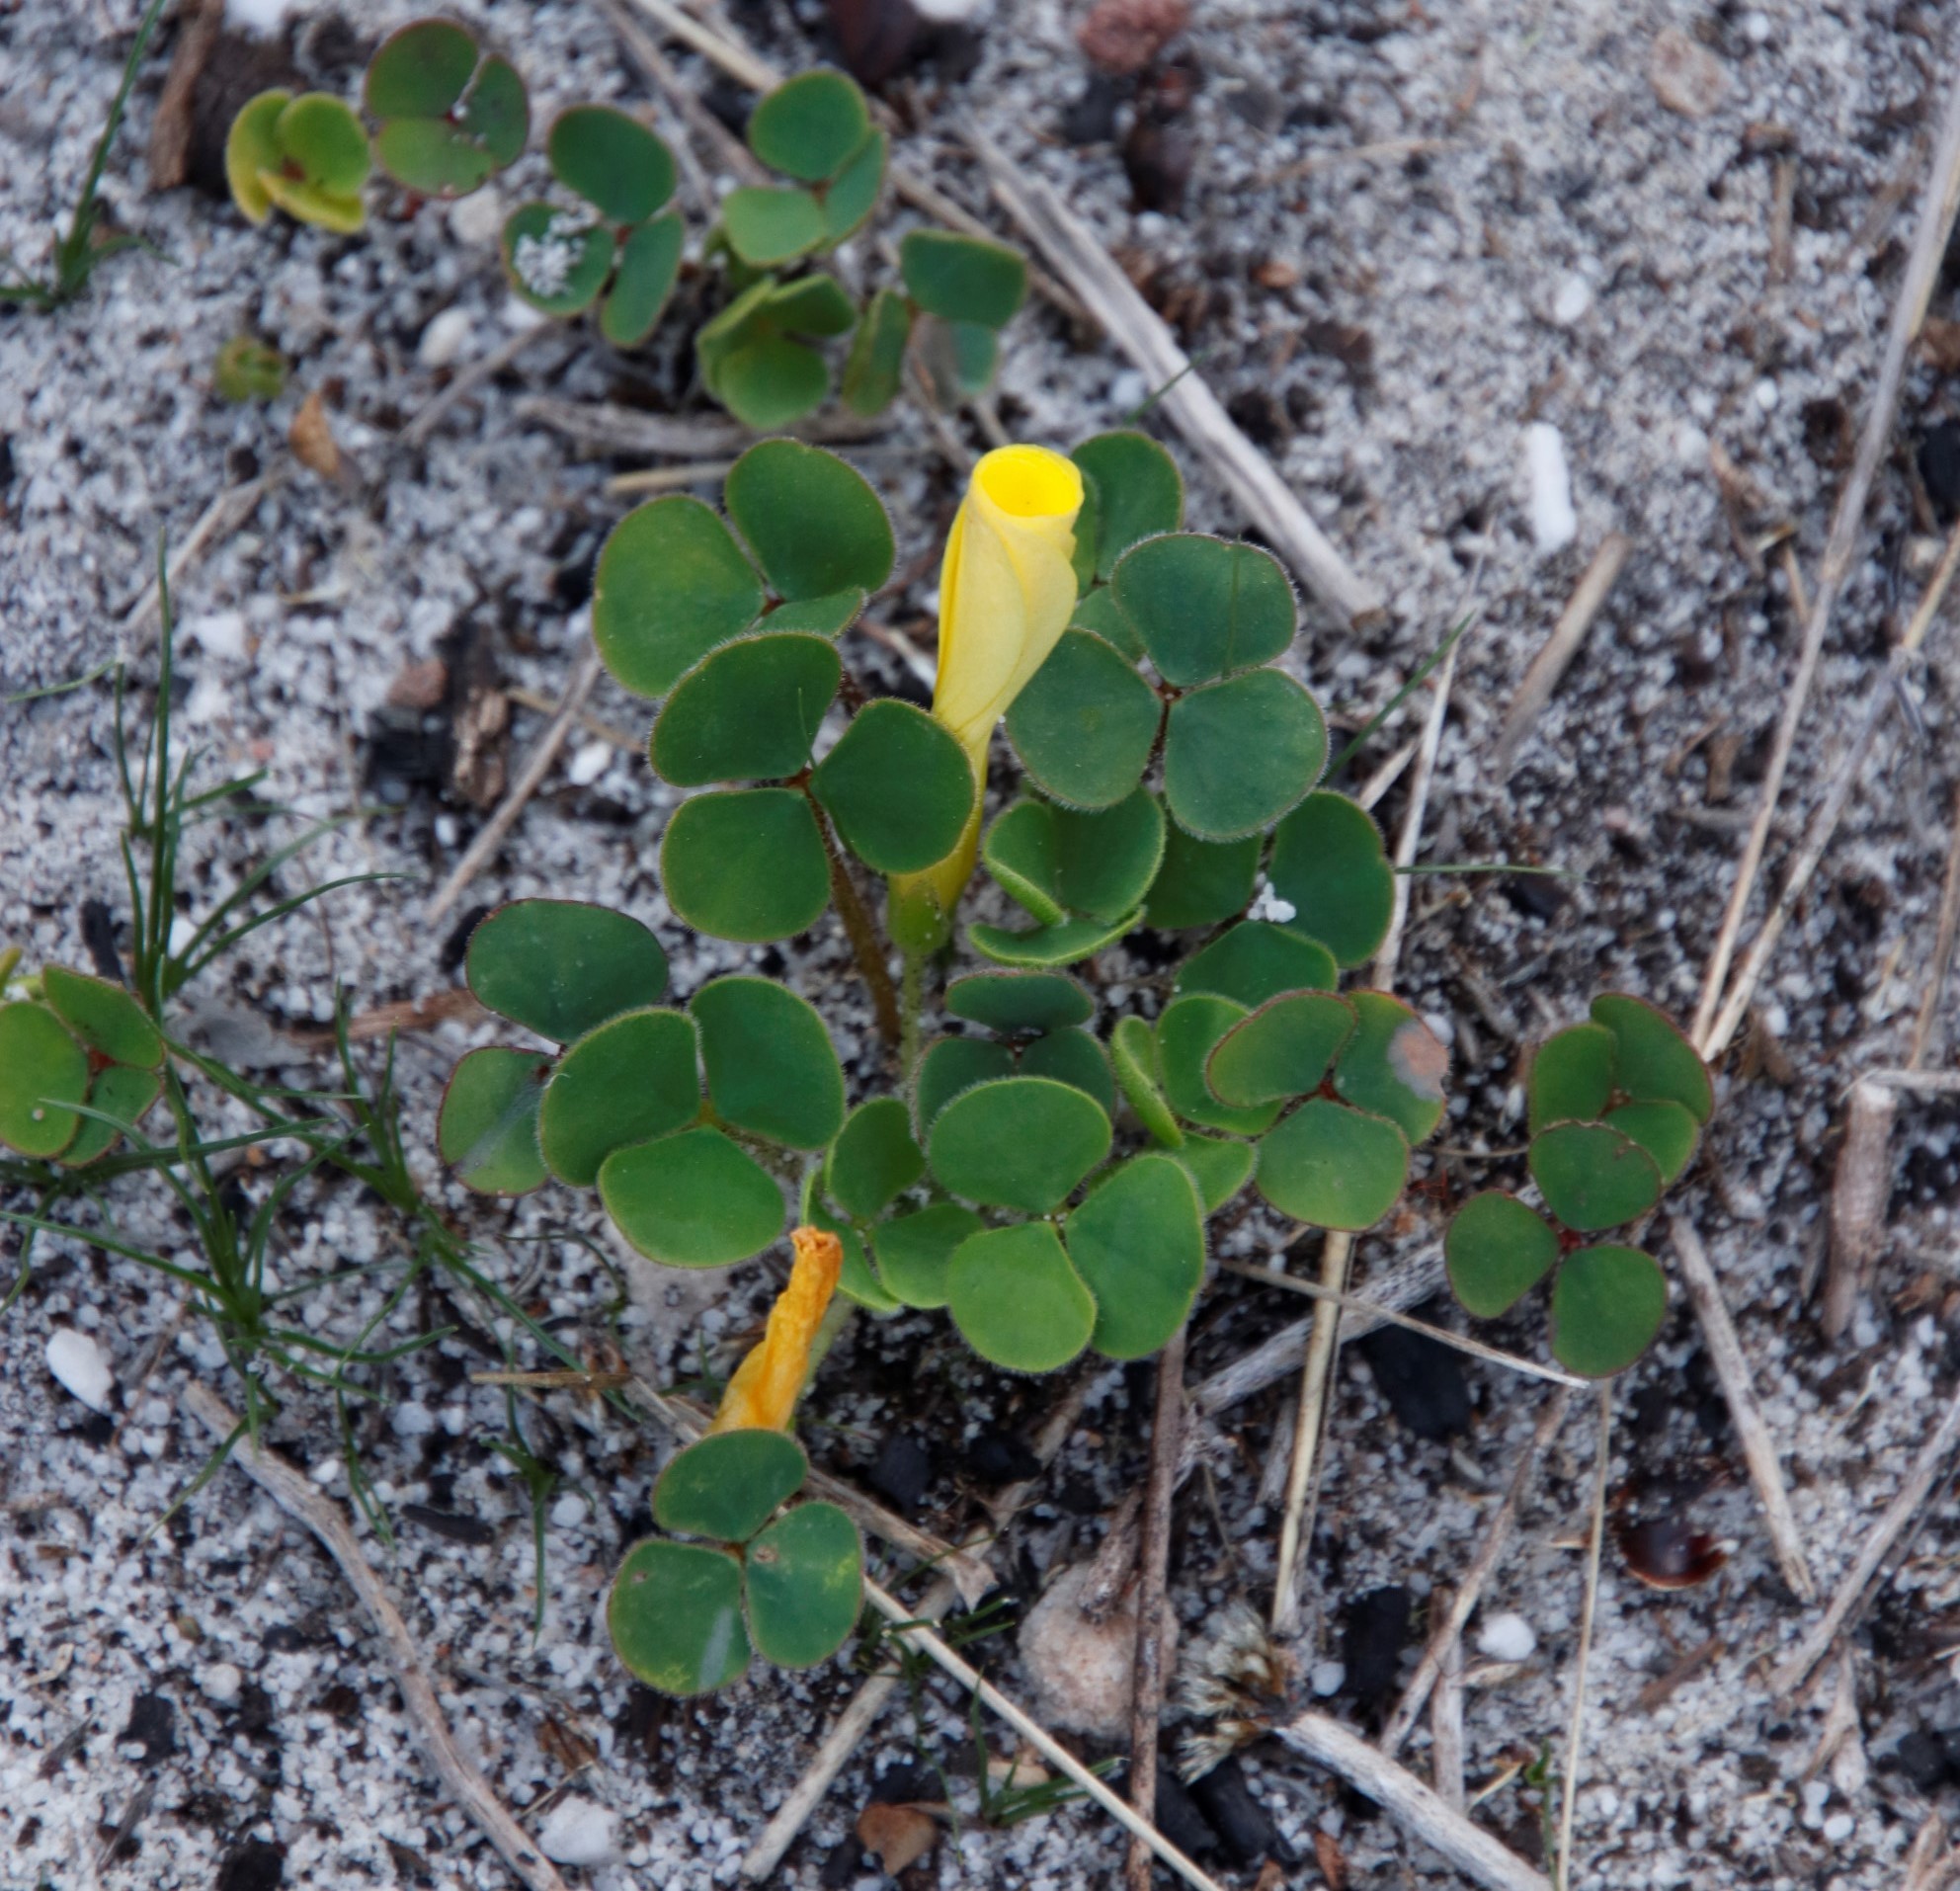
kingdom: Plantae
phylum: Tracheophyta
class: Magnoliopsida
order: Oxalidales
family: Oxalidaceae
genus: Oxalis
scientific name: Oxalis luteola
